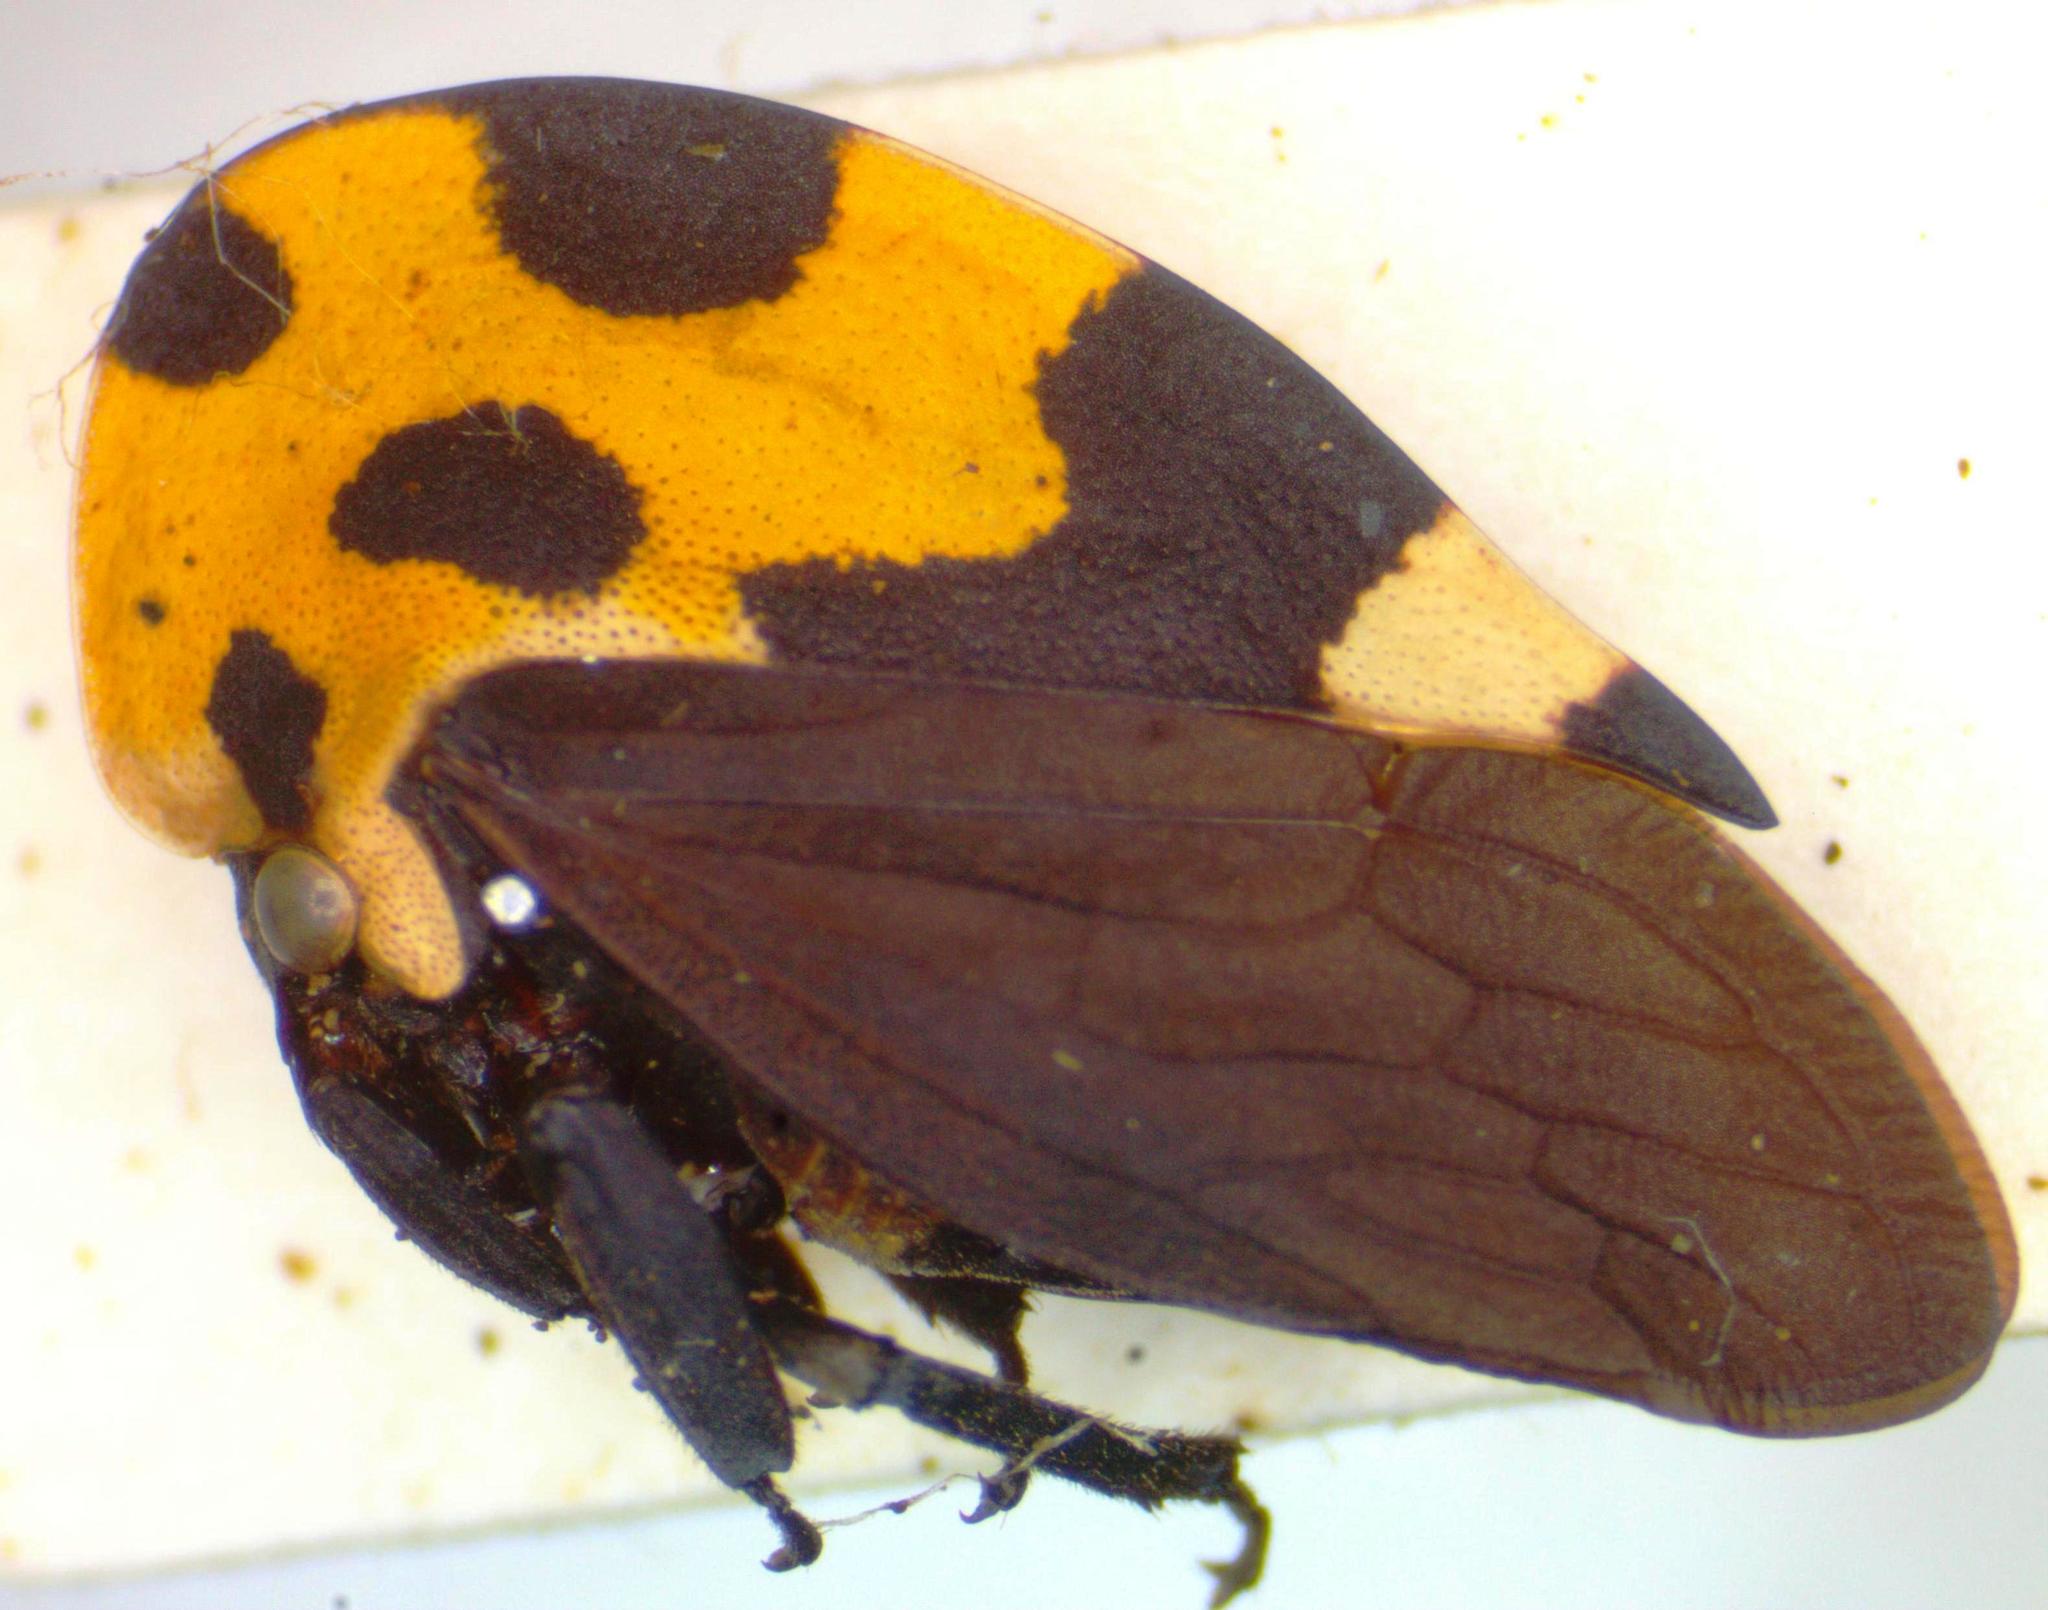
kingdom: Animalia
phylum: Arthropoda
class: Insecta
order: Hemiptera
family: Membracidae
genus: Membracis
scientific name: Membracis mexicana
